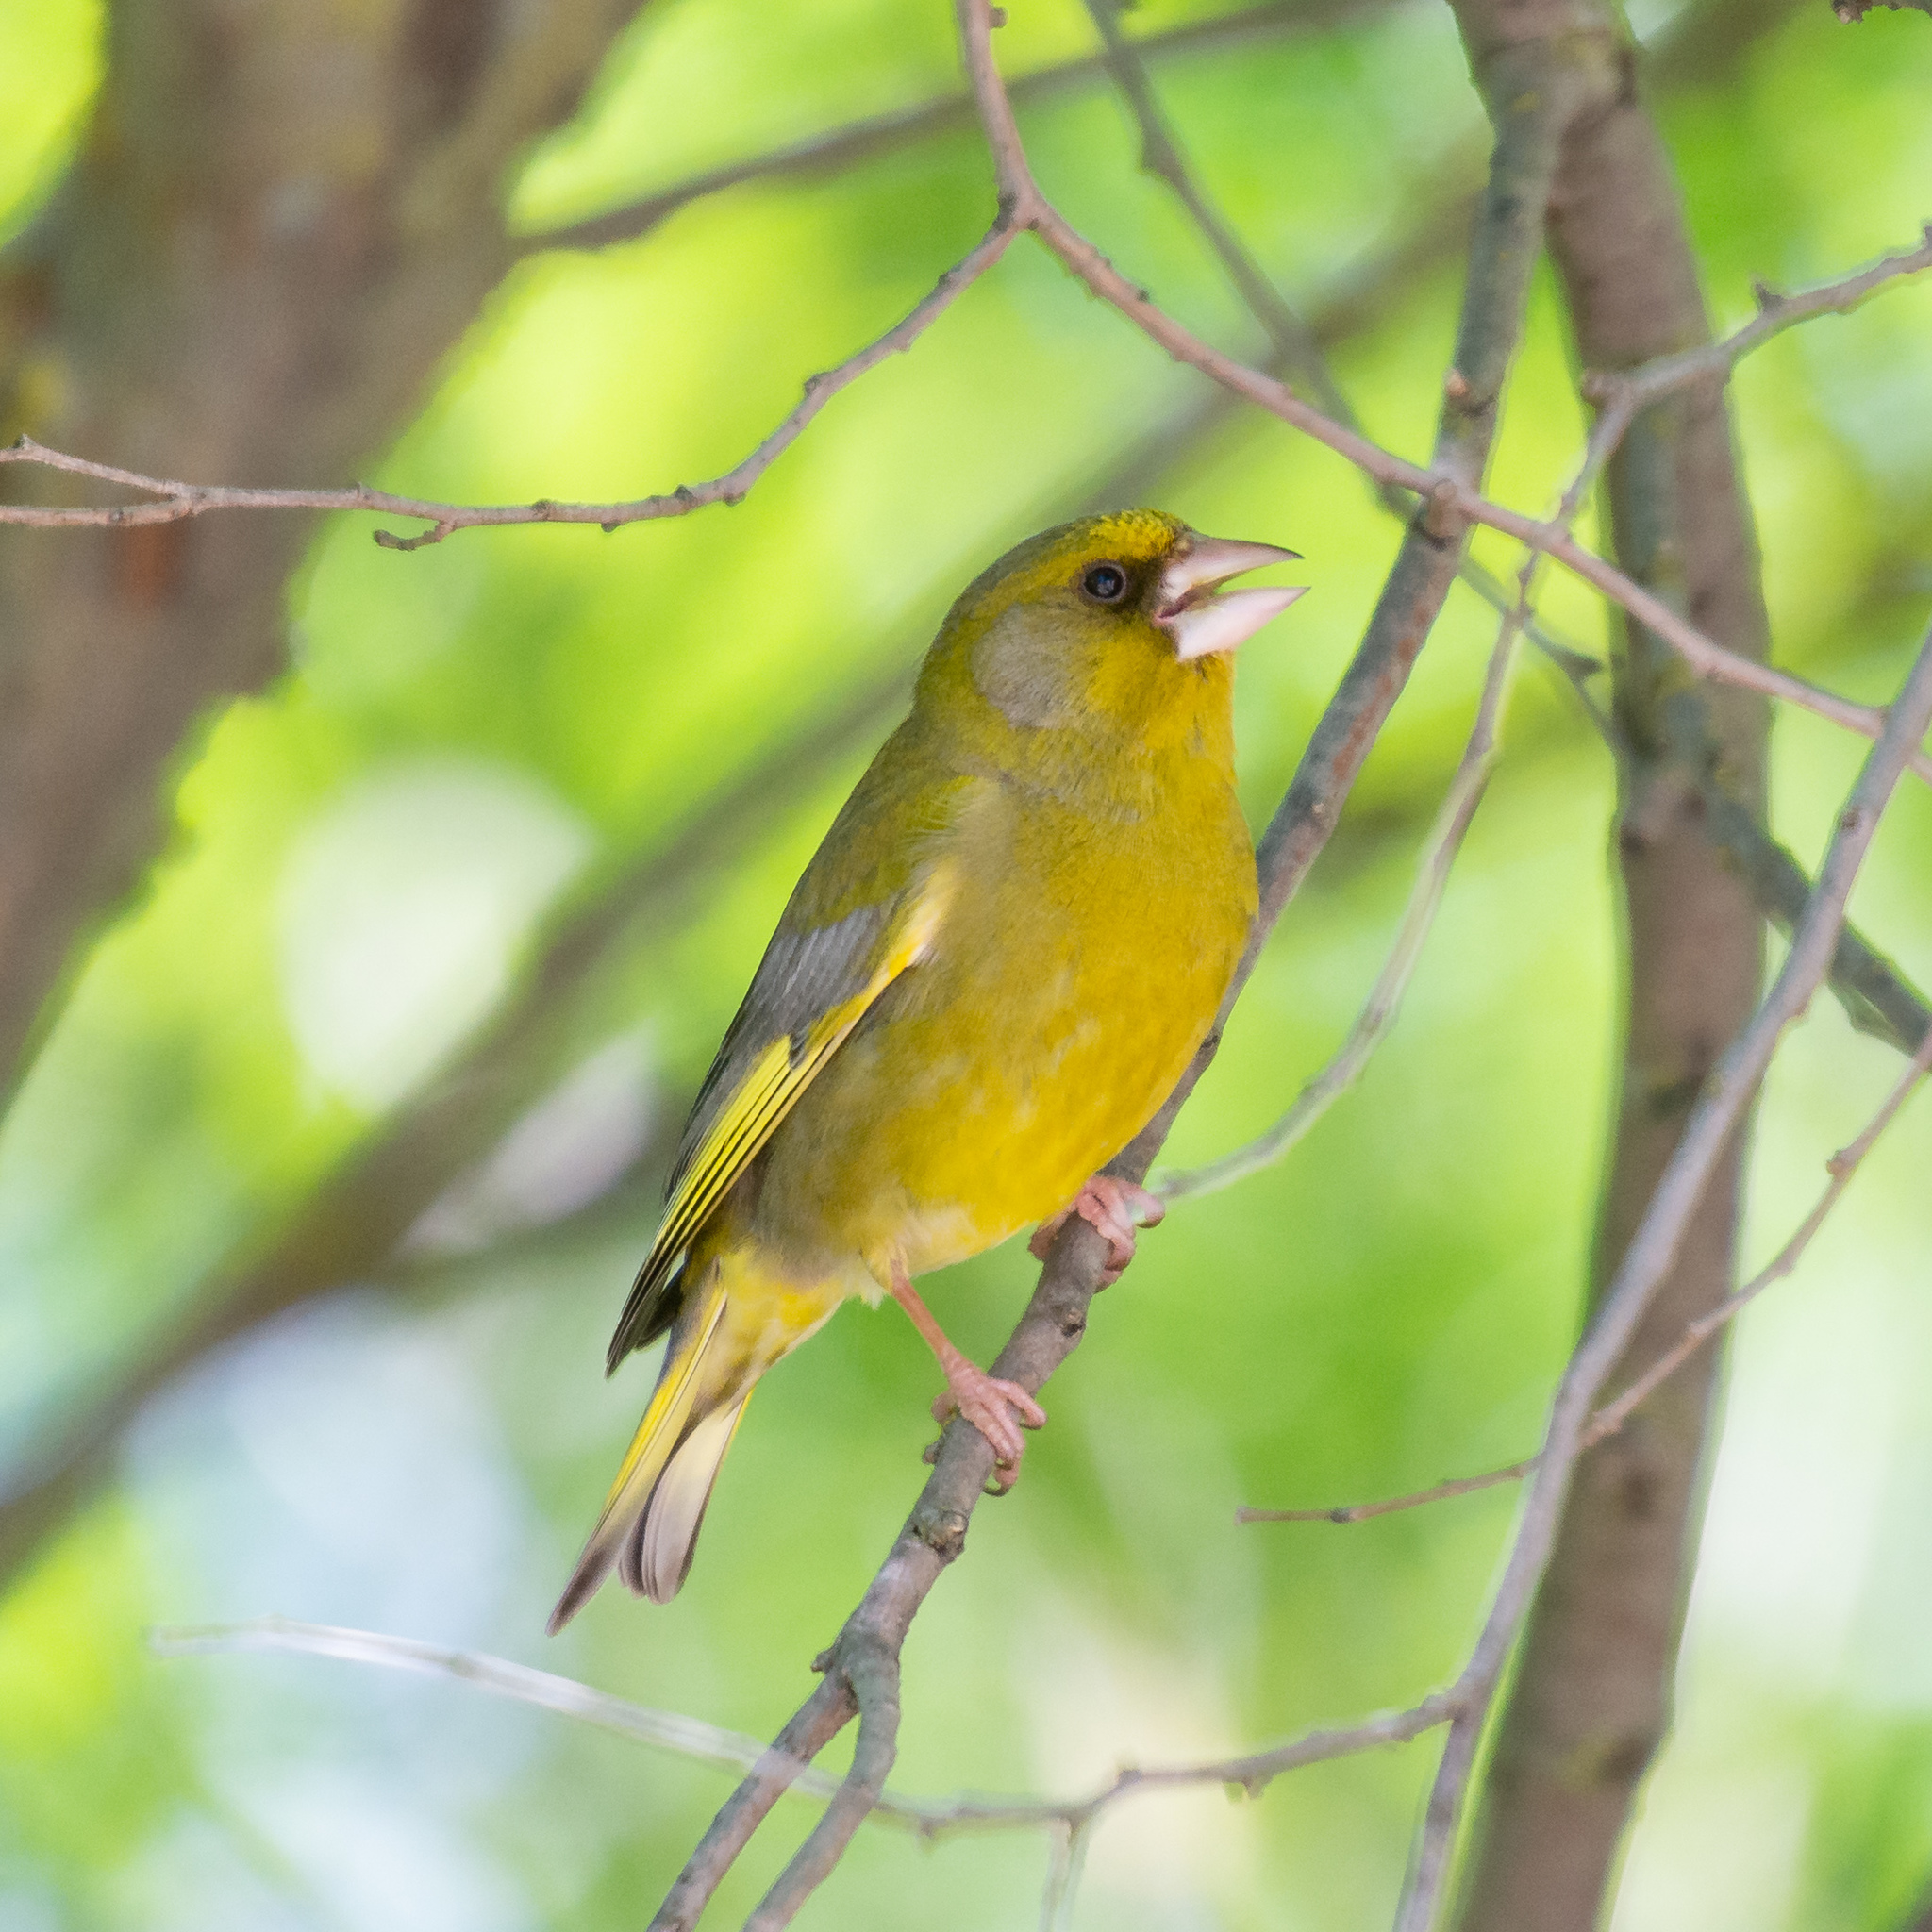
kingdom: Plantae
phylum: Tracheophyta
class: Liliopsida
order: Poales
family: Poaceae
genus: Chloris
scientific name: Chloris chloris
